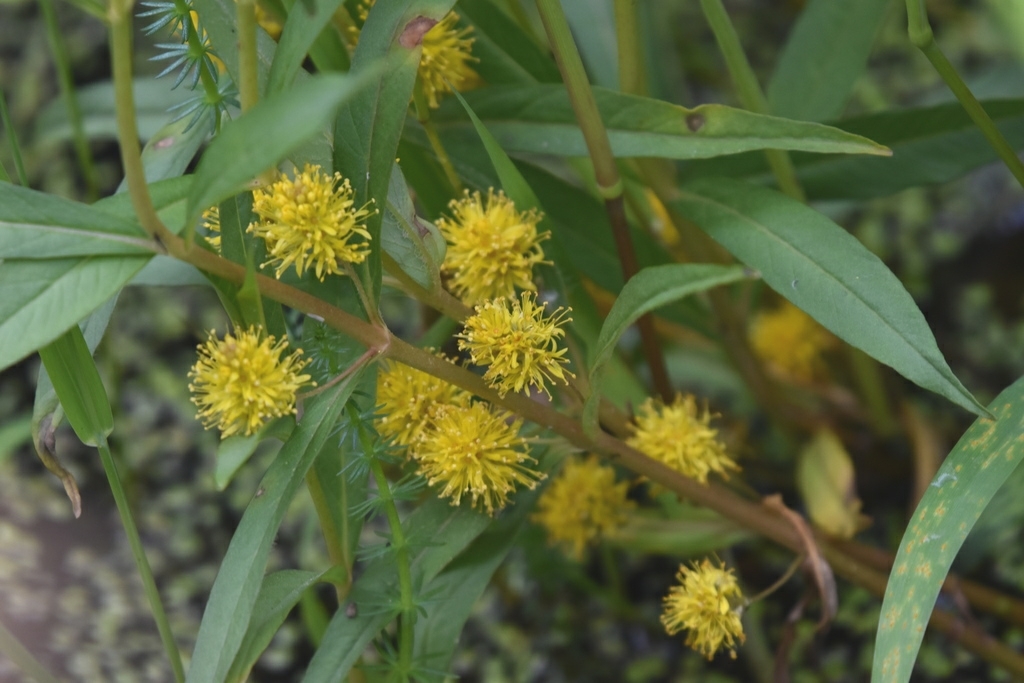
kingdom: Plantae
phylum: Tracheophyta
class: Magnoliopsida
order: Ericales
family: Primulaceae
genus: Lysimachia
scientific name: Lysimachia thyrsiflora
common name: Tufted loosestrife
